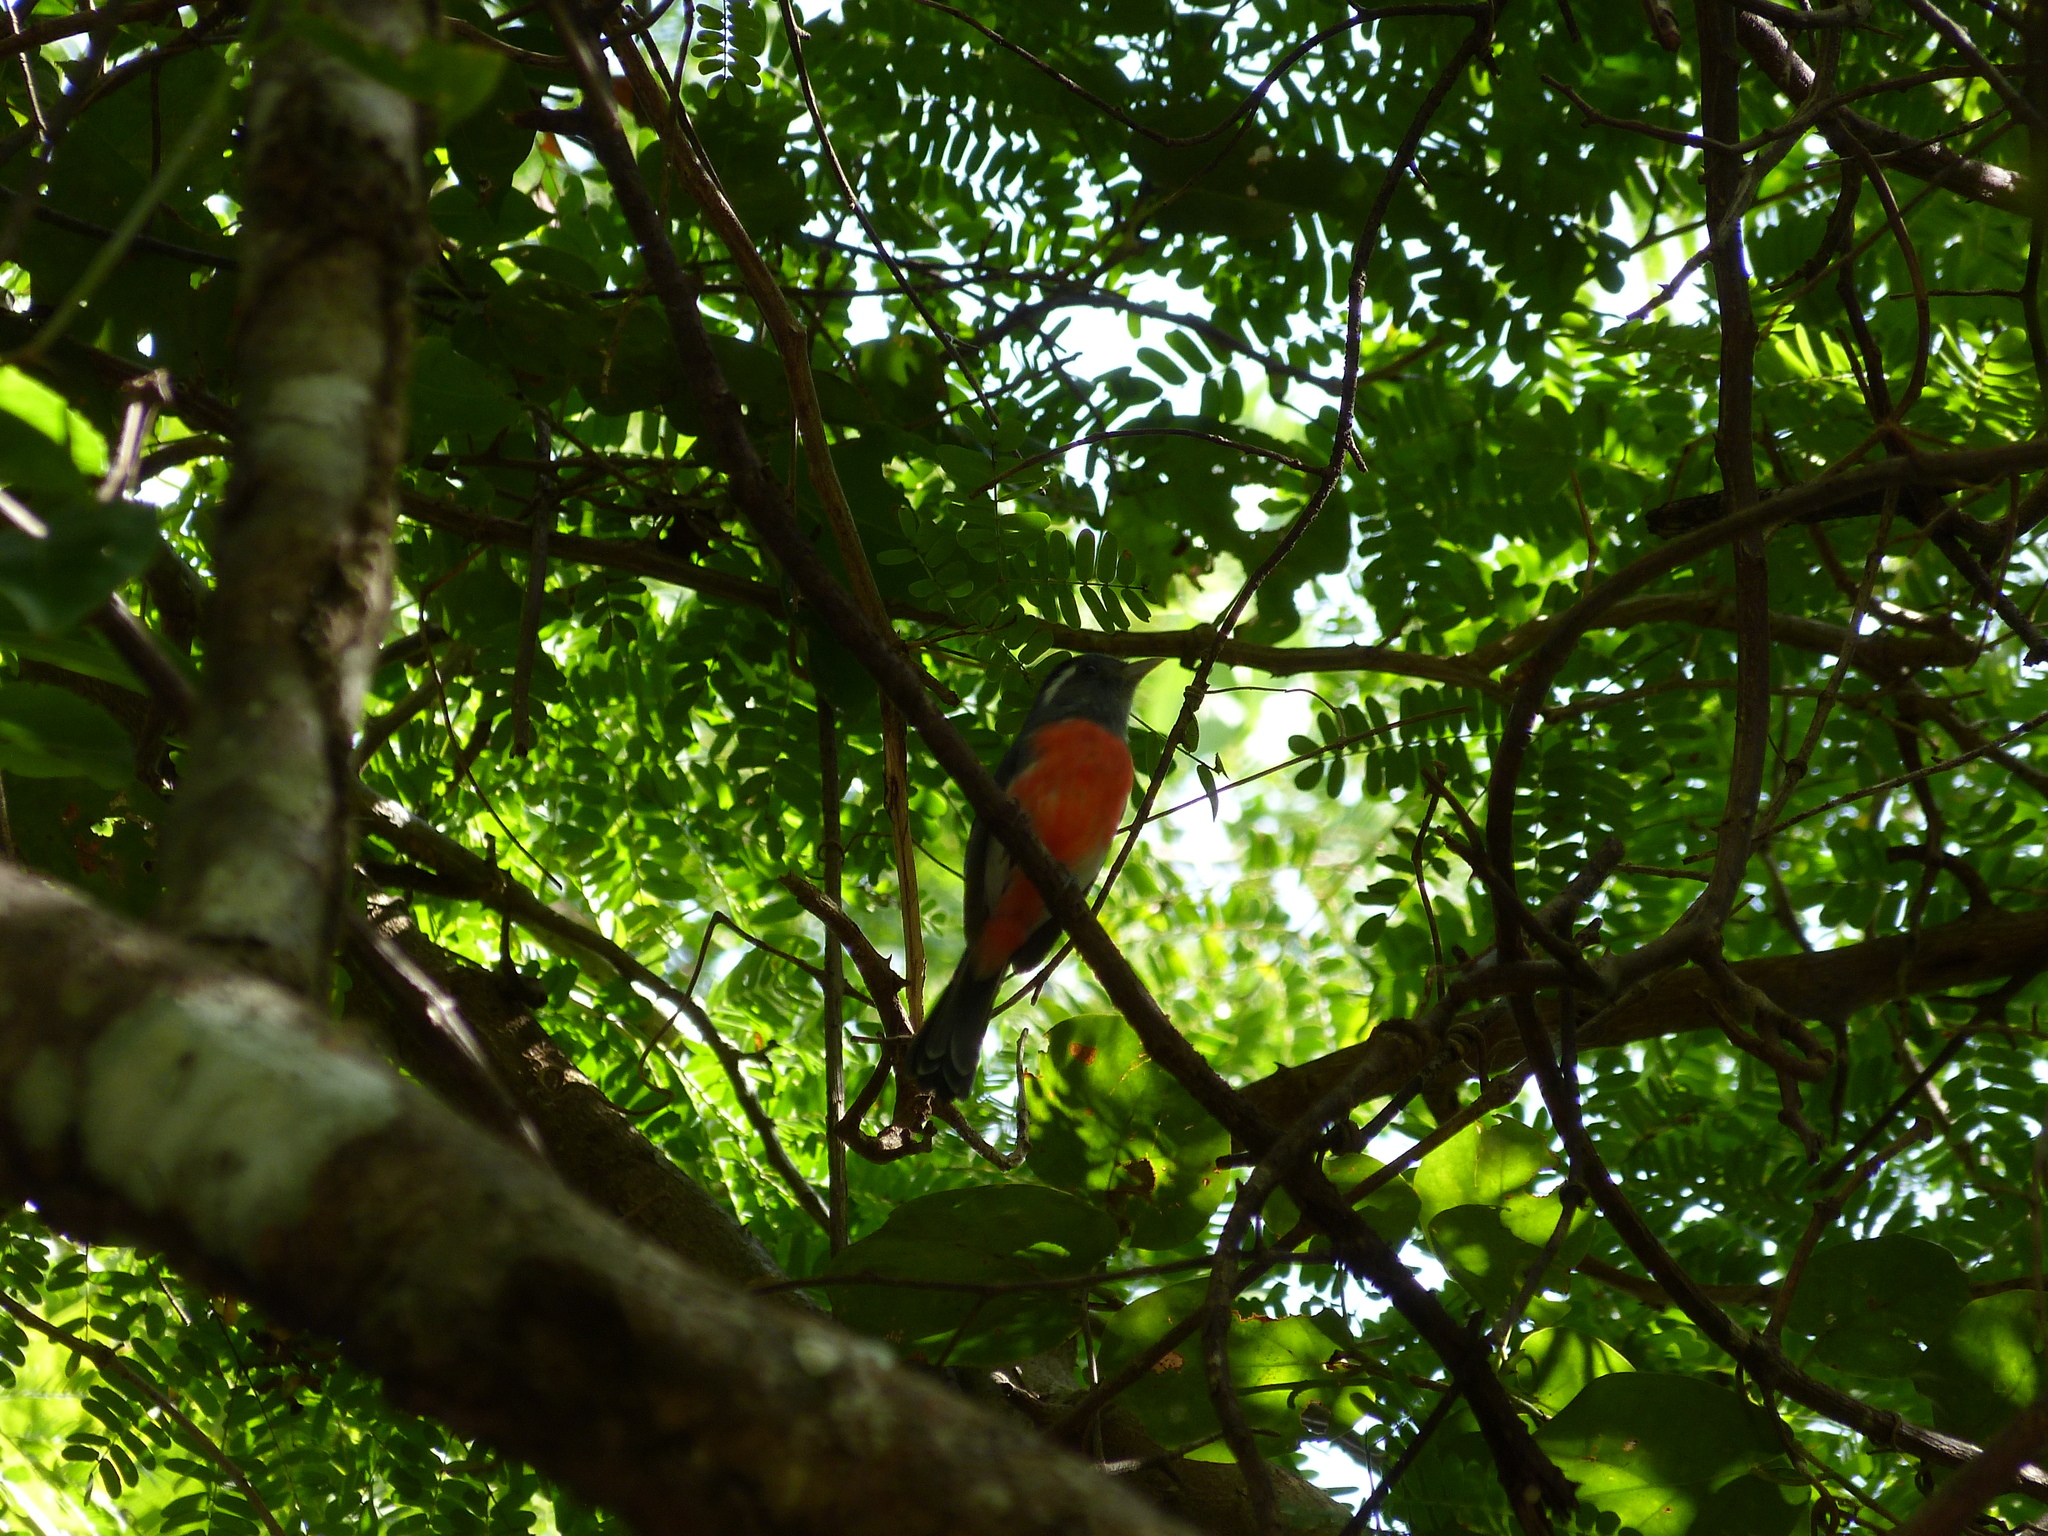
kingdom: Animalia
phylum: Chordata
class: Aves
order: Passeriformes
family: Cardinalidae
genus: Granatellus
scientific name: Granatellus sallaei
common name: Gray-throated chat
